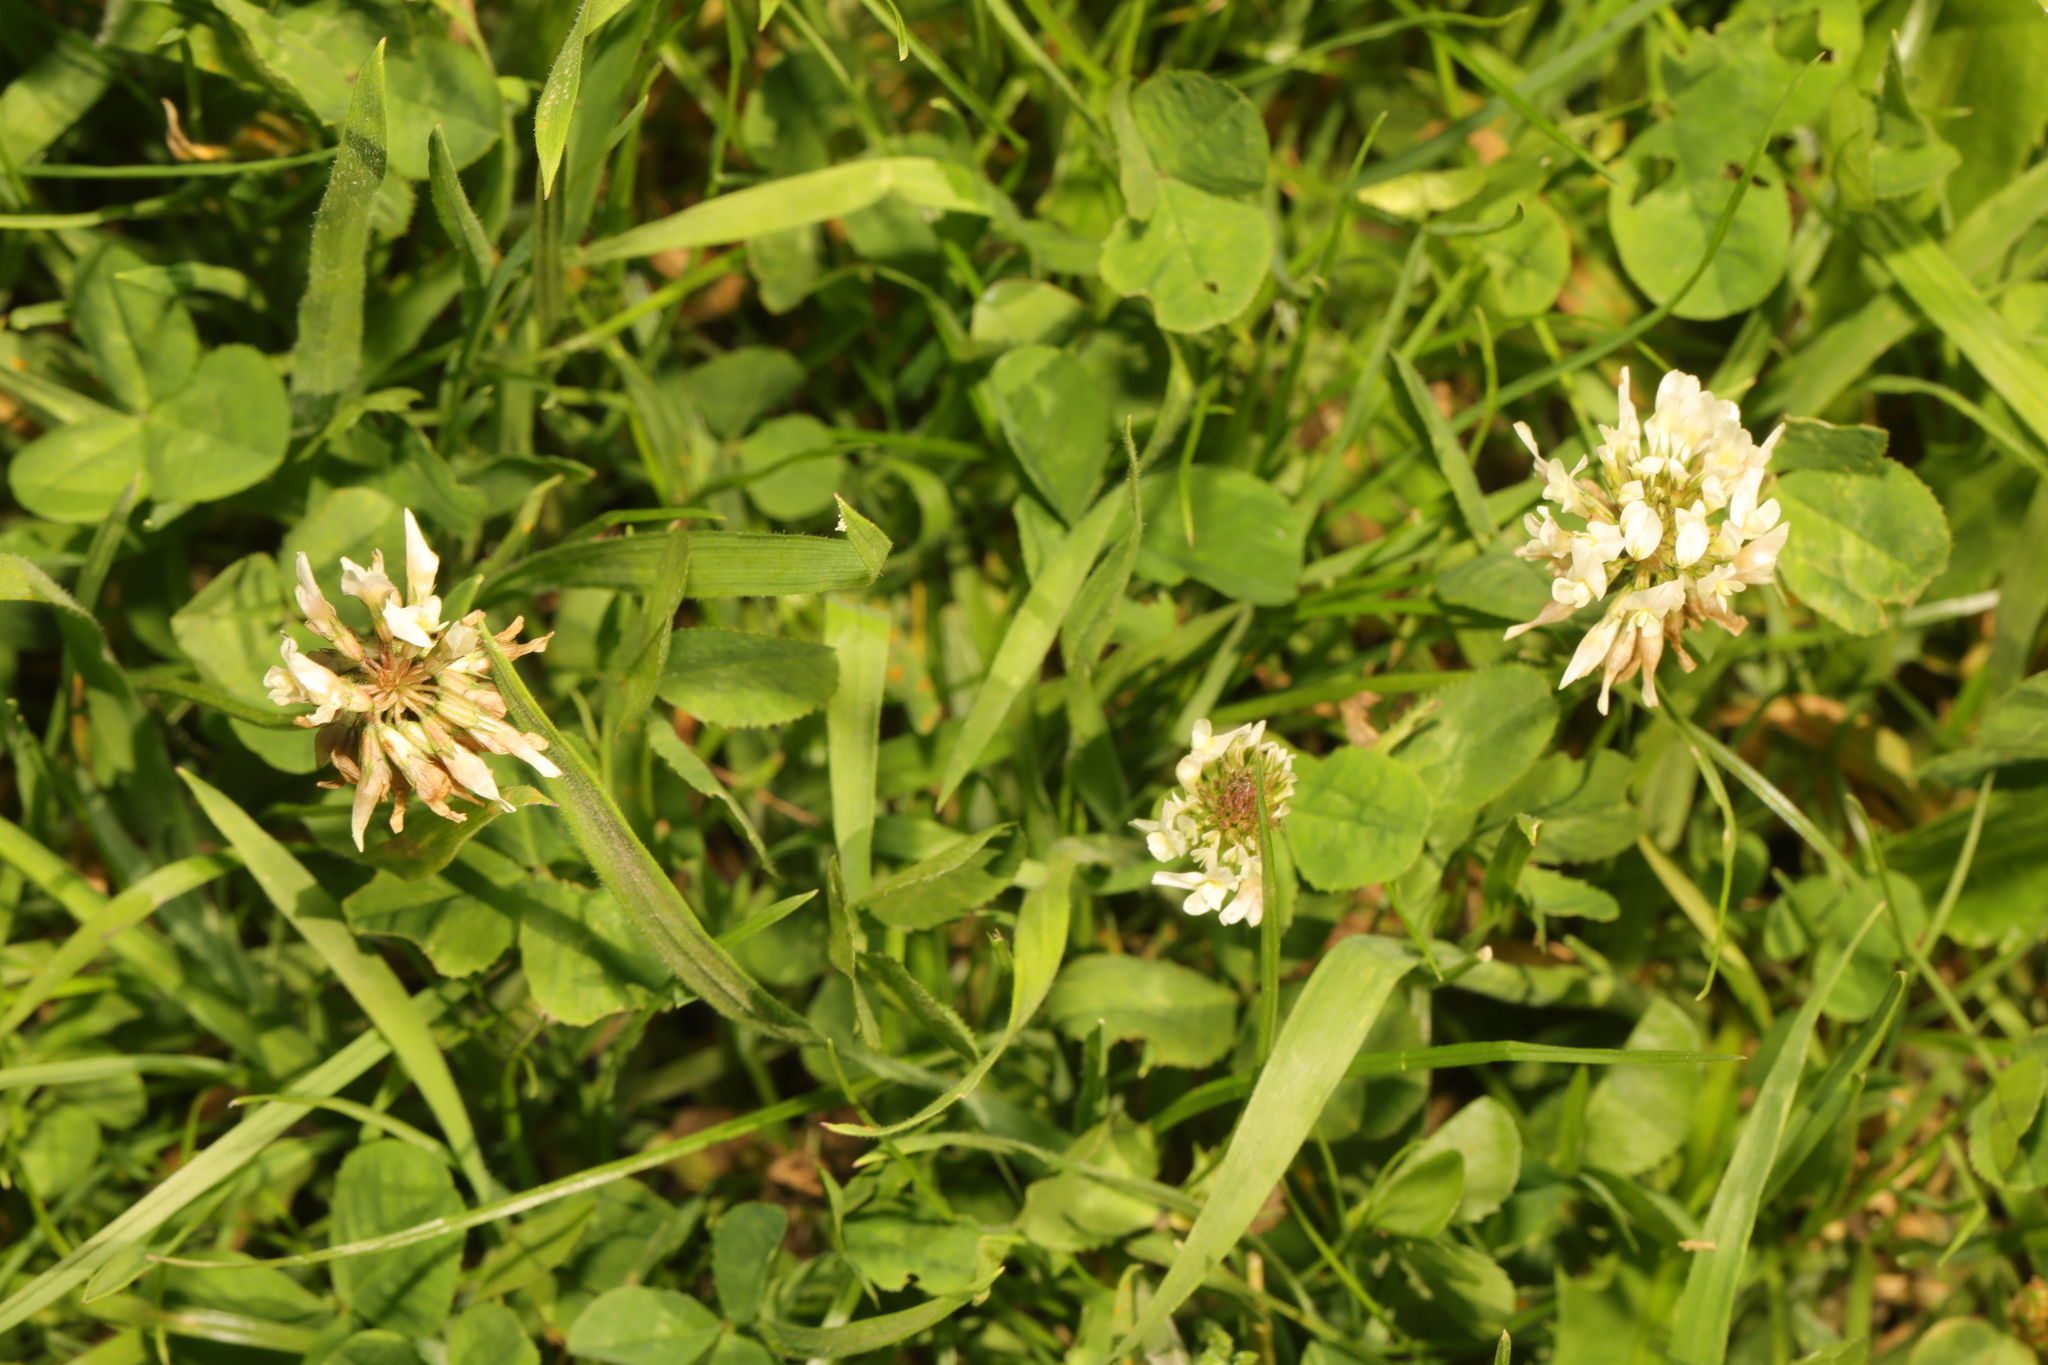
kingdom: Plantae
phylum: Tracheophyta
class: Magnoliopsida
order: Fabales
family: Fabaceae
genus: Trifolium
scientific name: Trifolium repens
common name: White clover
